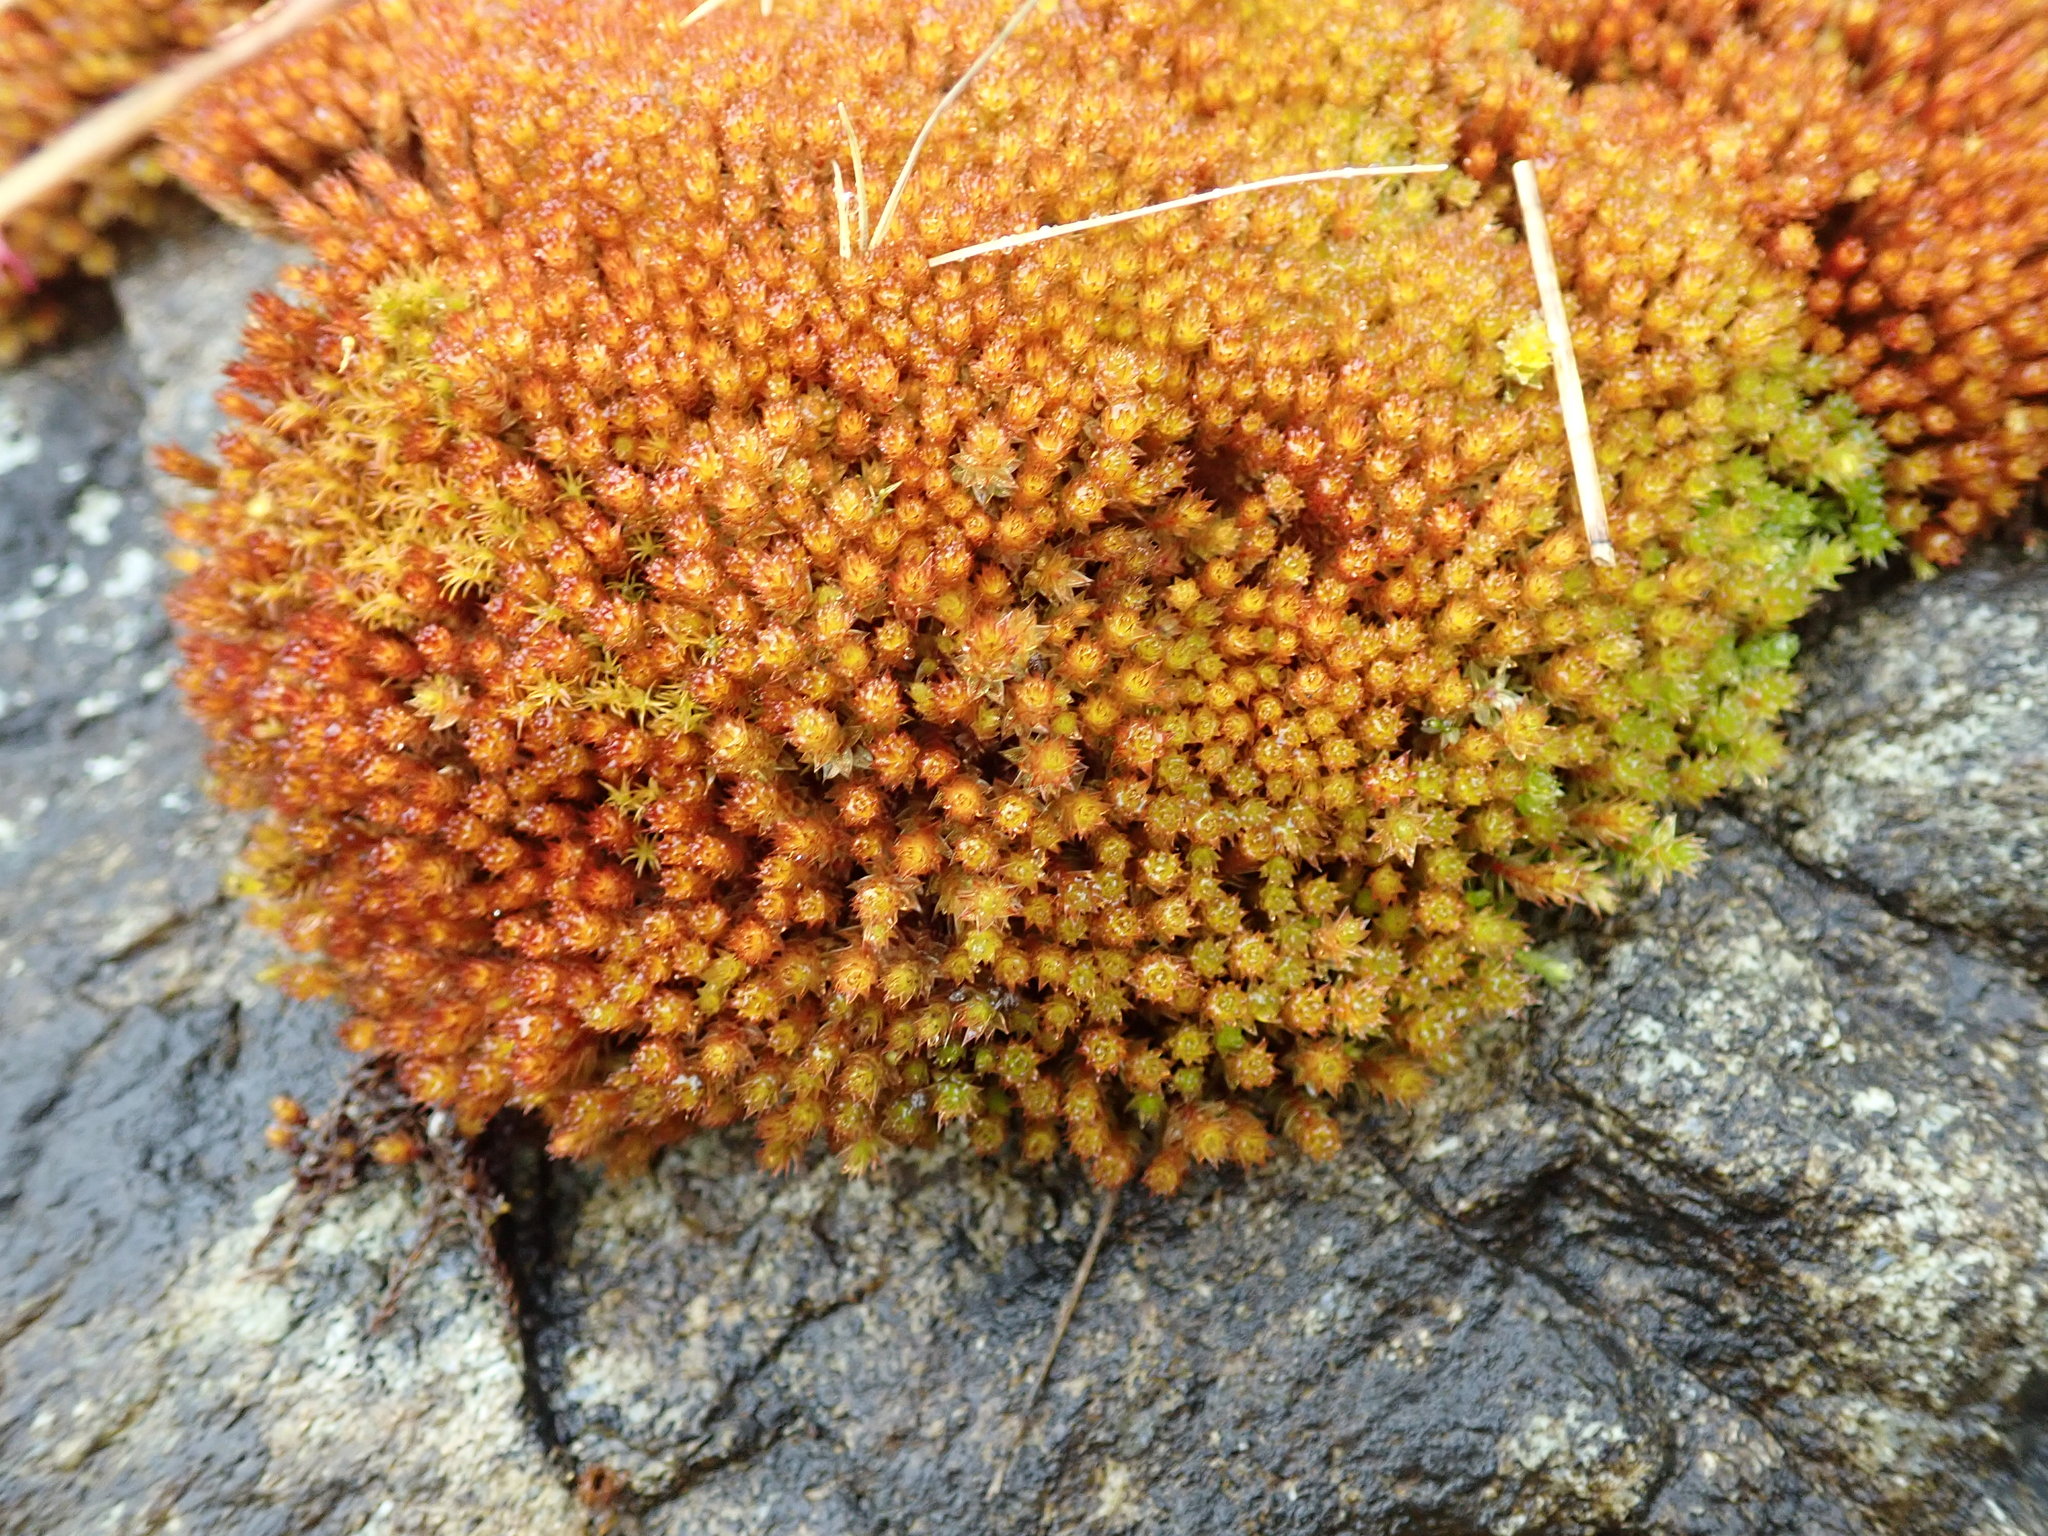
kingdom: Plantae
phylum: Bryophyta
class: Bryopsida
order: Bryales
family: Bryaceae
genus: Imbribryum
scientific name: Imbribryum torenii
